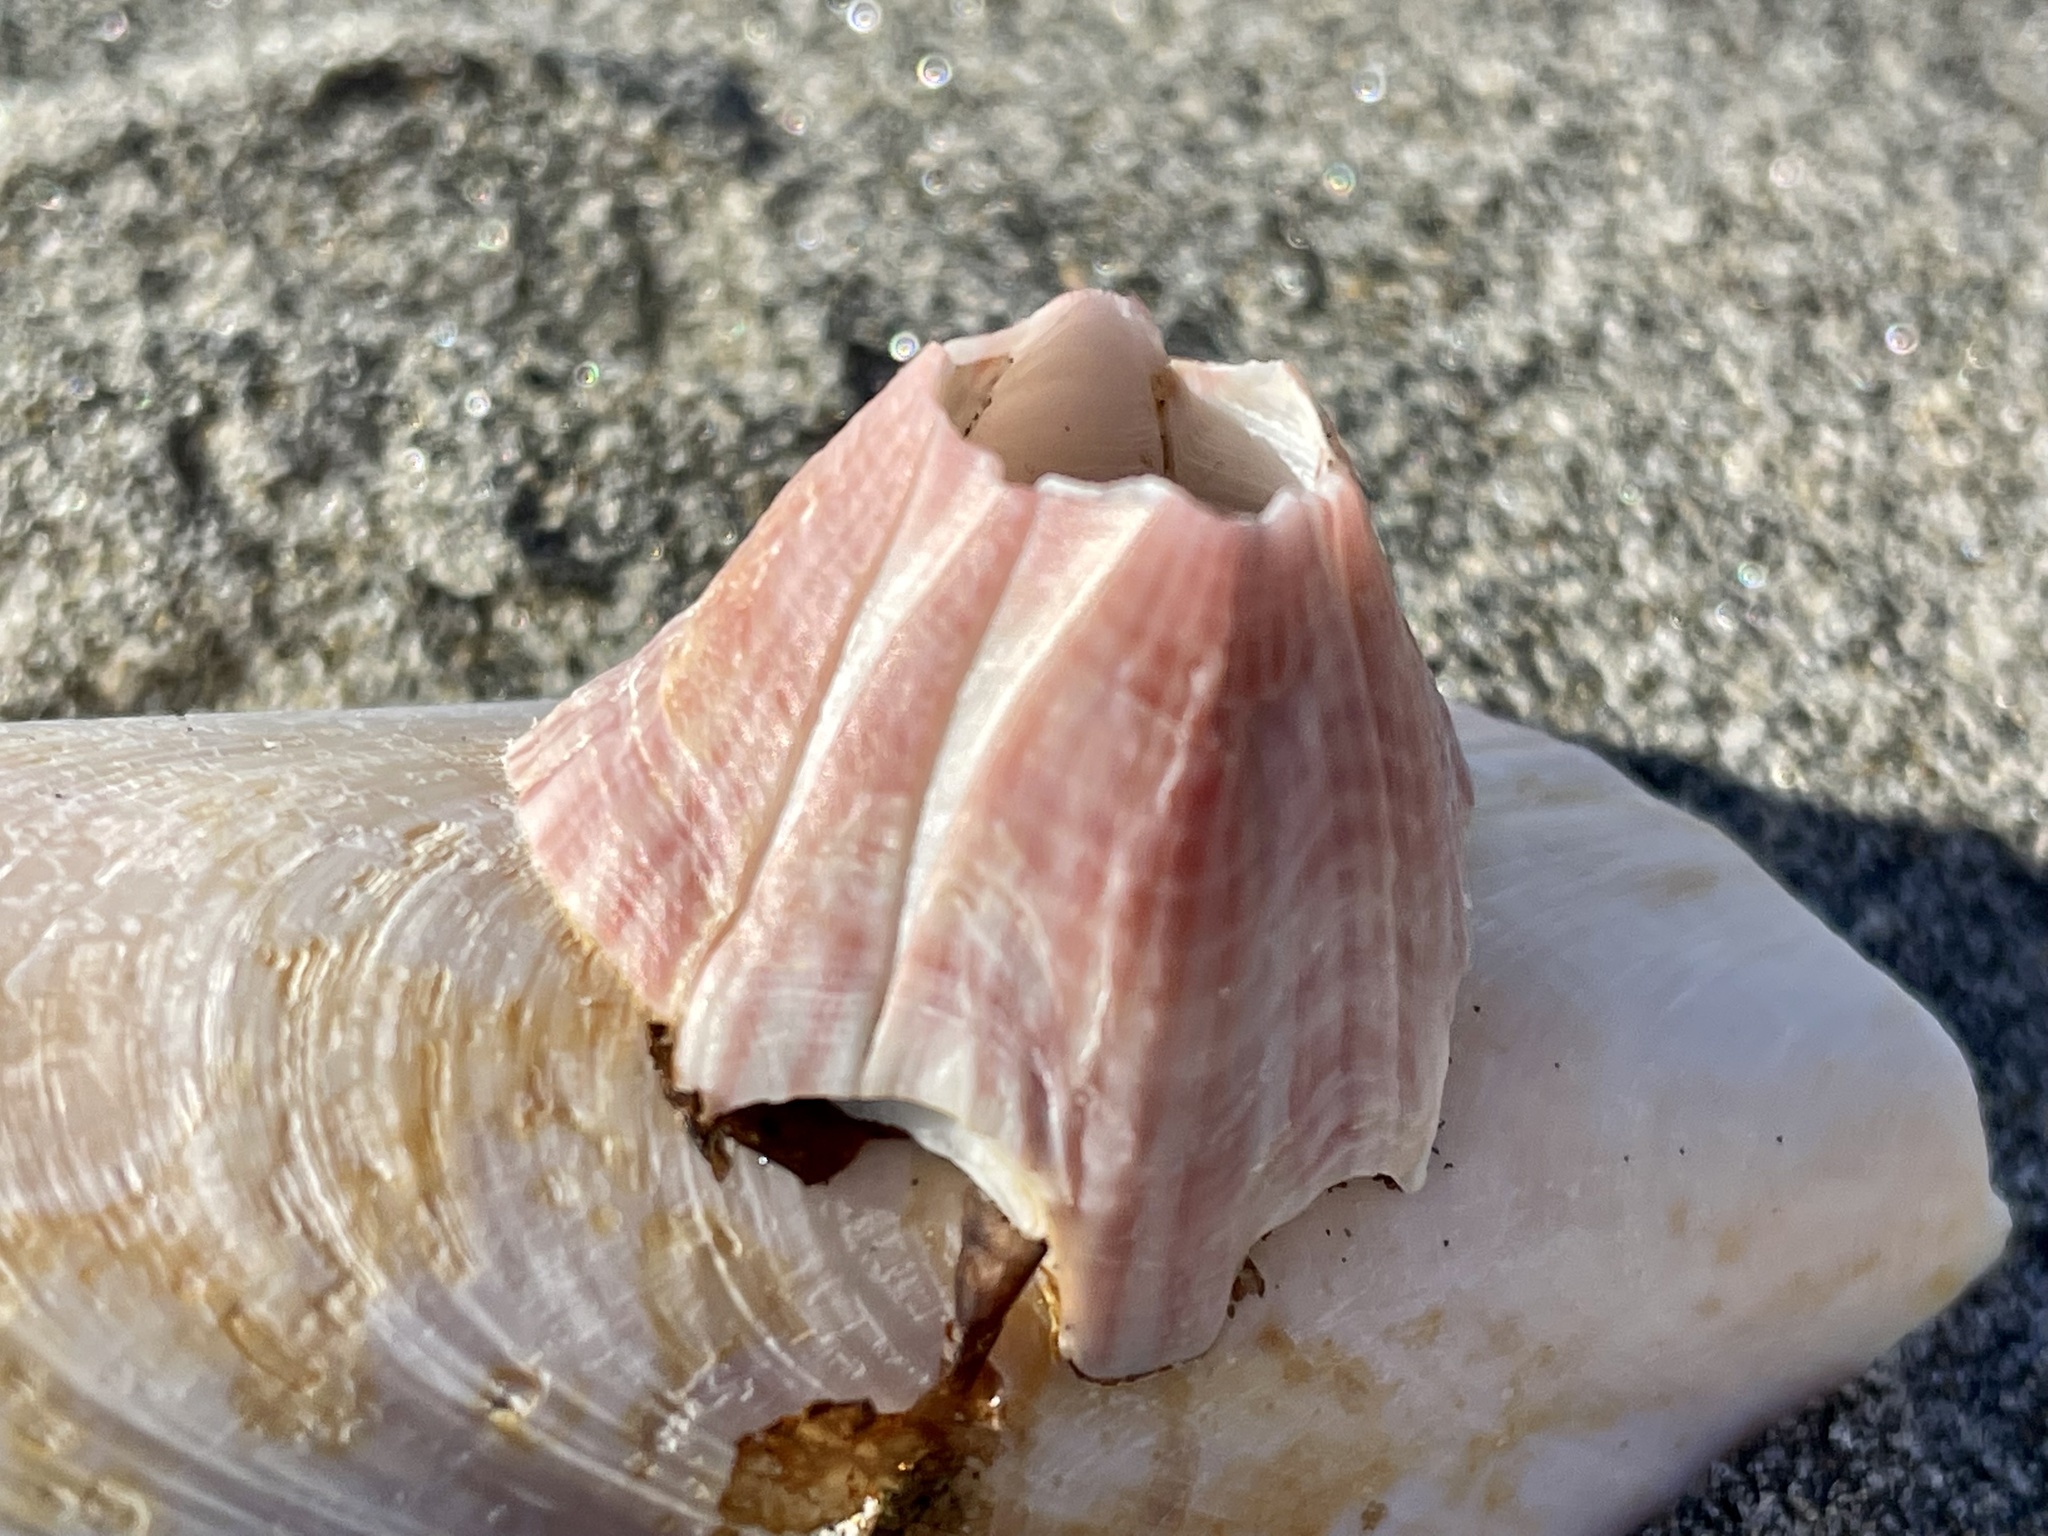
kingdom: Animalia
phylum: Arthropoda
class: Maxillopoda
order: Sessilia
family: Balanidae
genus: Paraconcavus
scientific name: Paraconcavus pacificus
